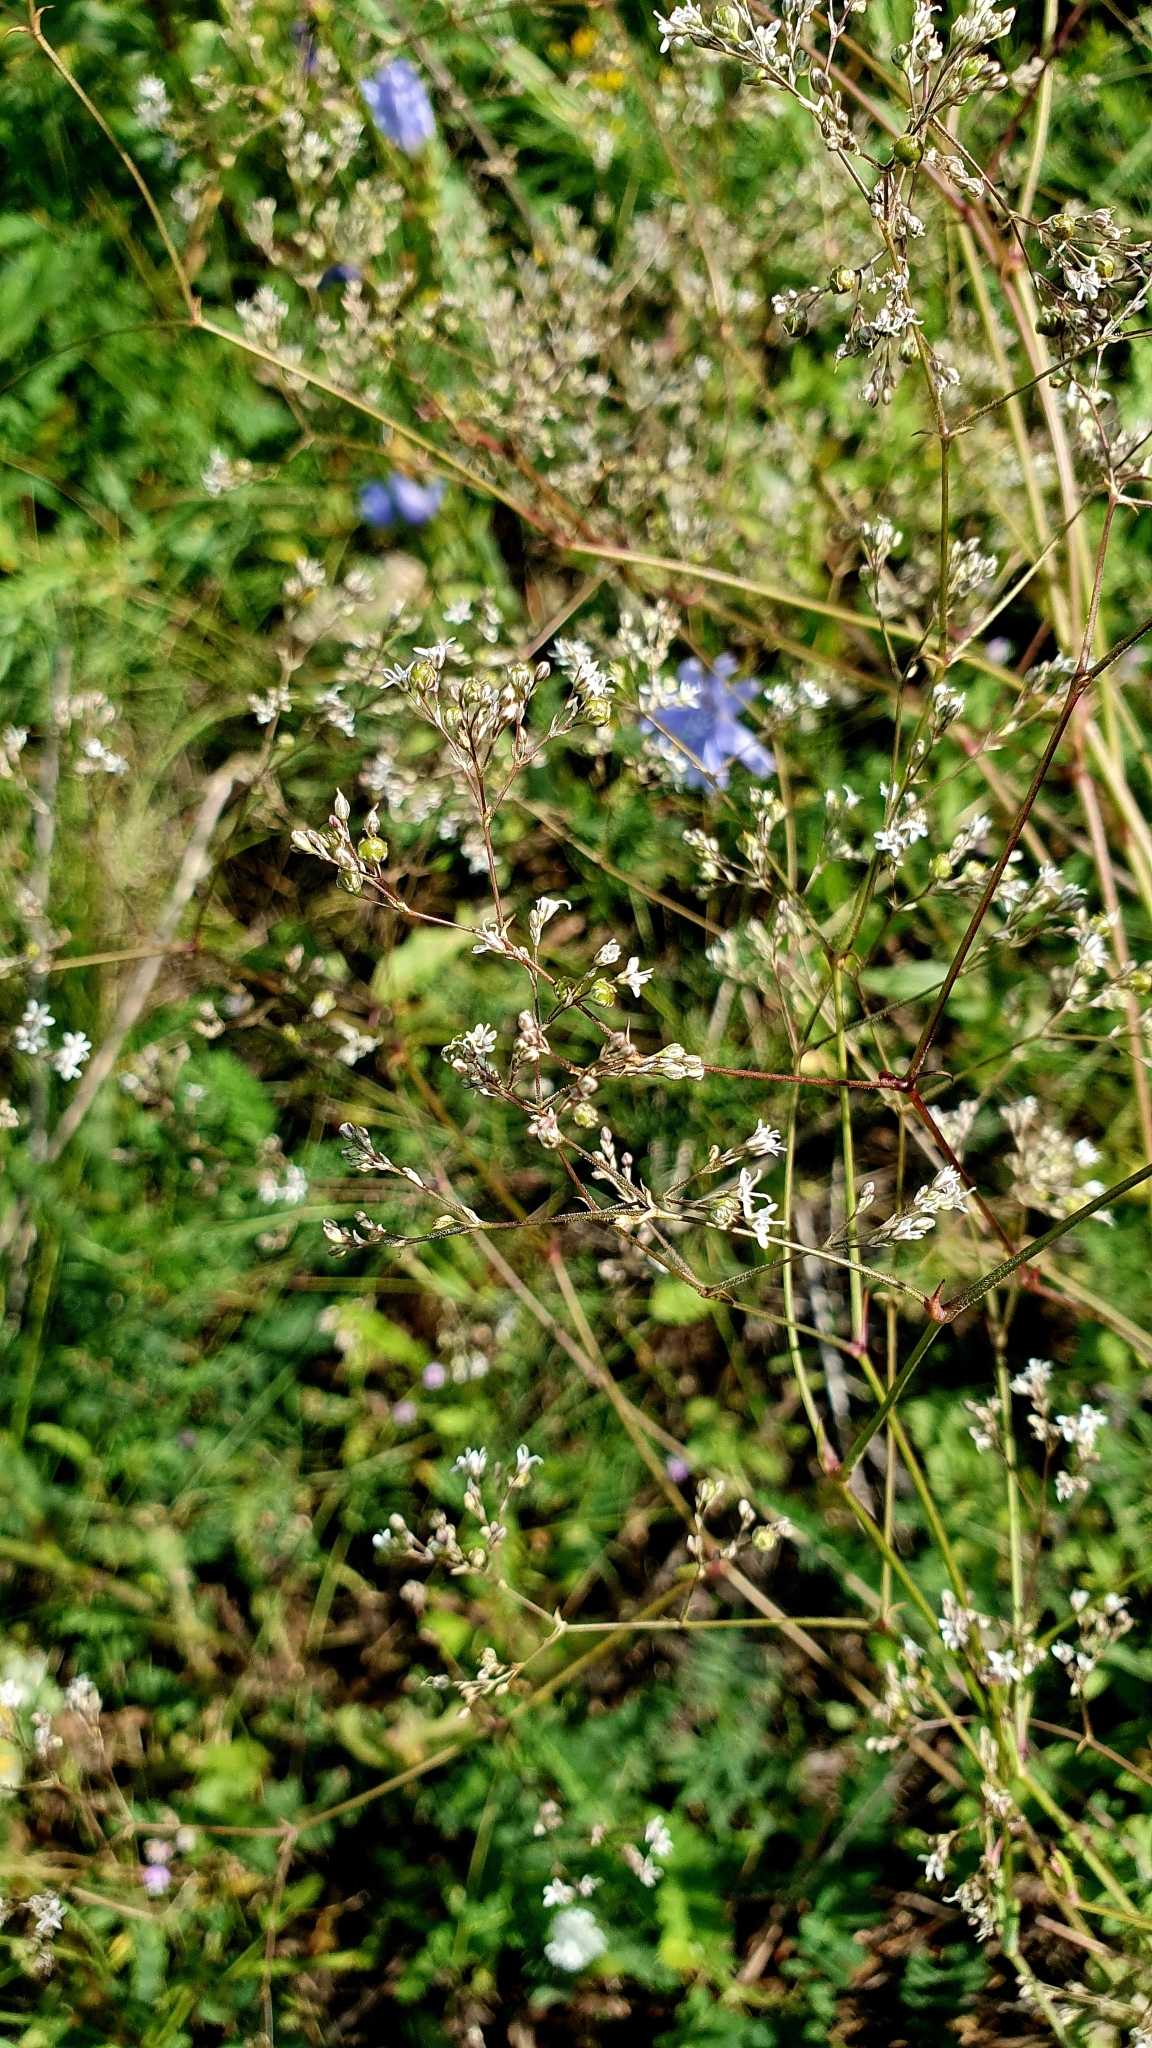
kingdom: Plantae
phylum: Tracheophyta
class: Magnoliopsida
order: Caryophyllales
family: Caryophyllaceae
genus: Gypsophila
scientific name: Gypsophila altissima
